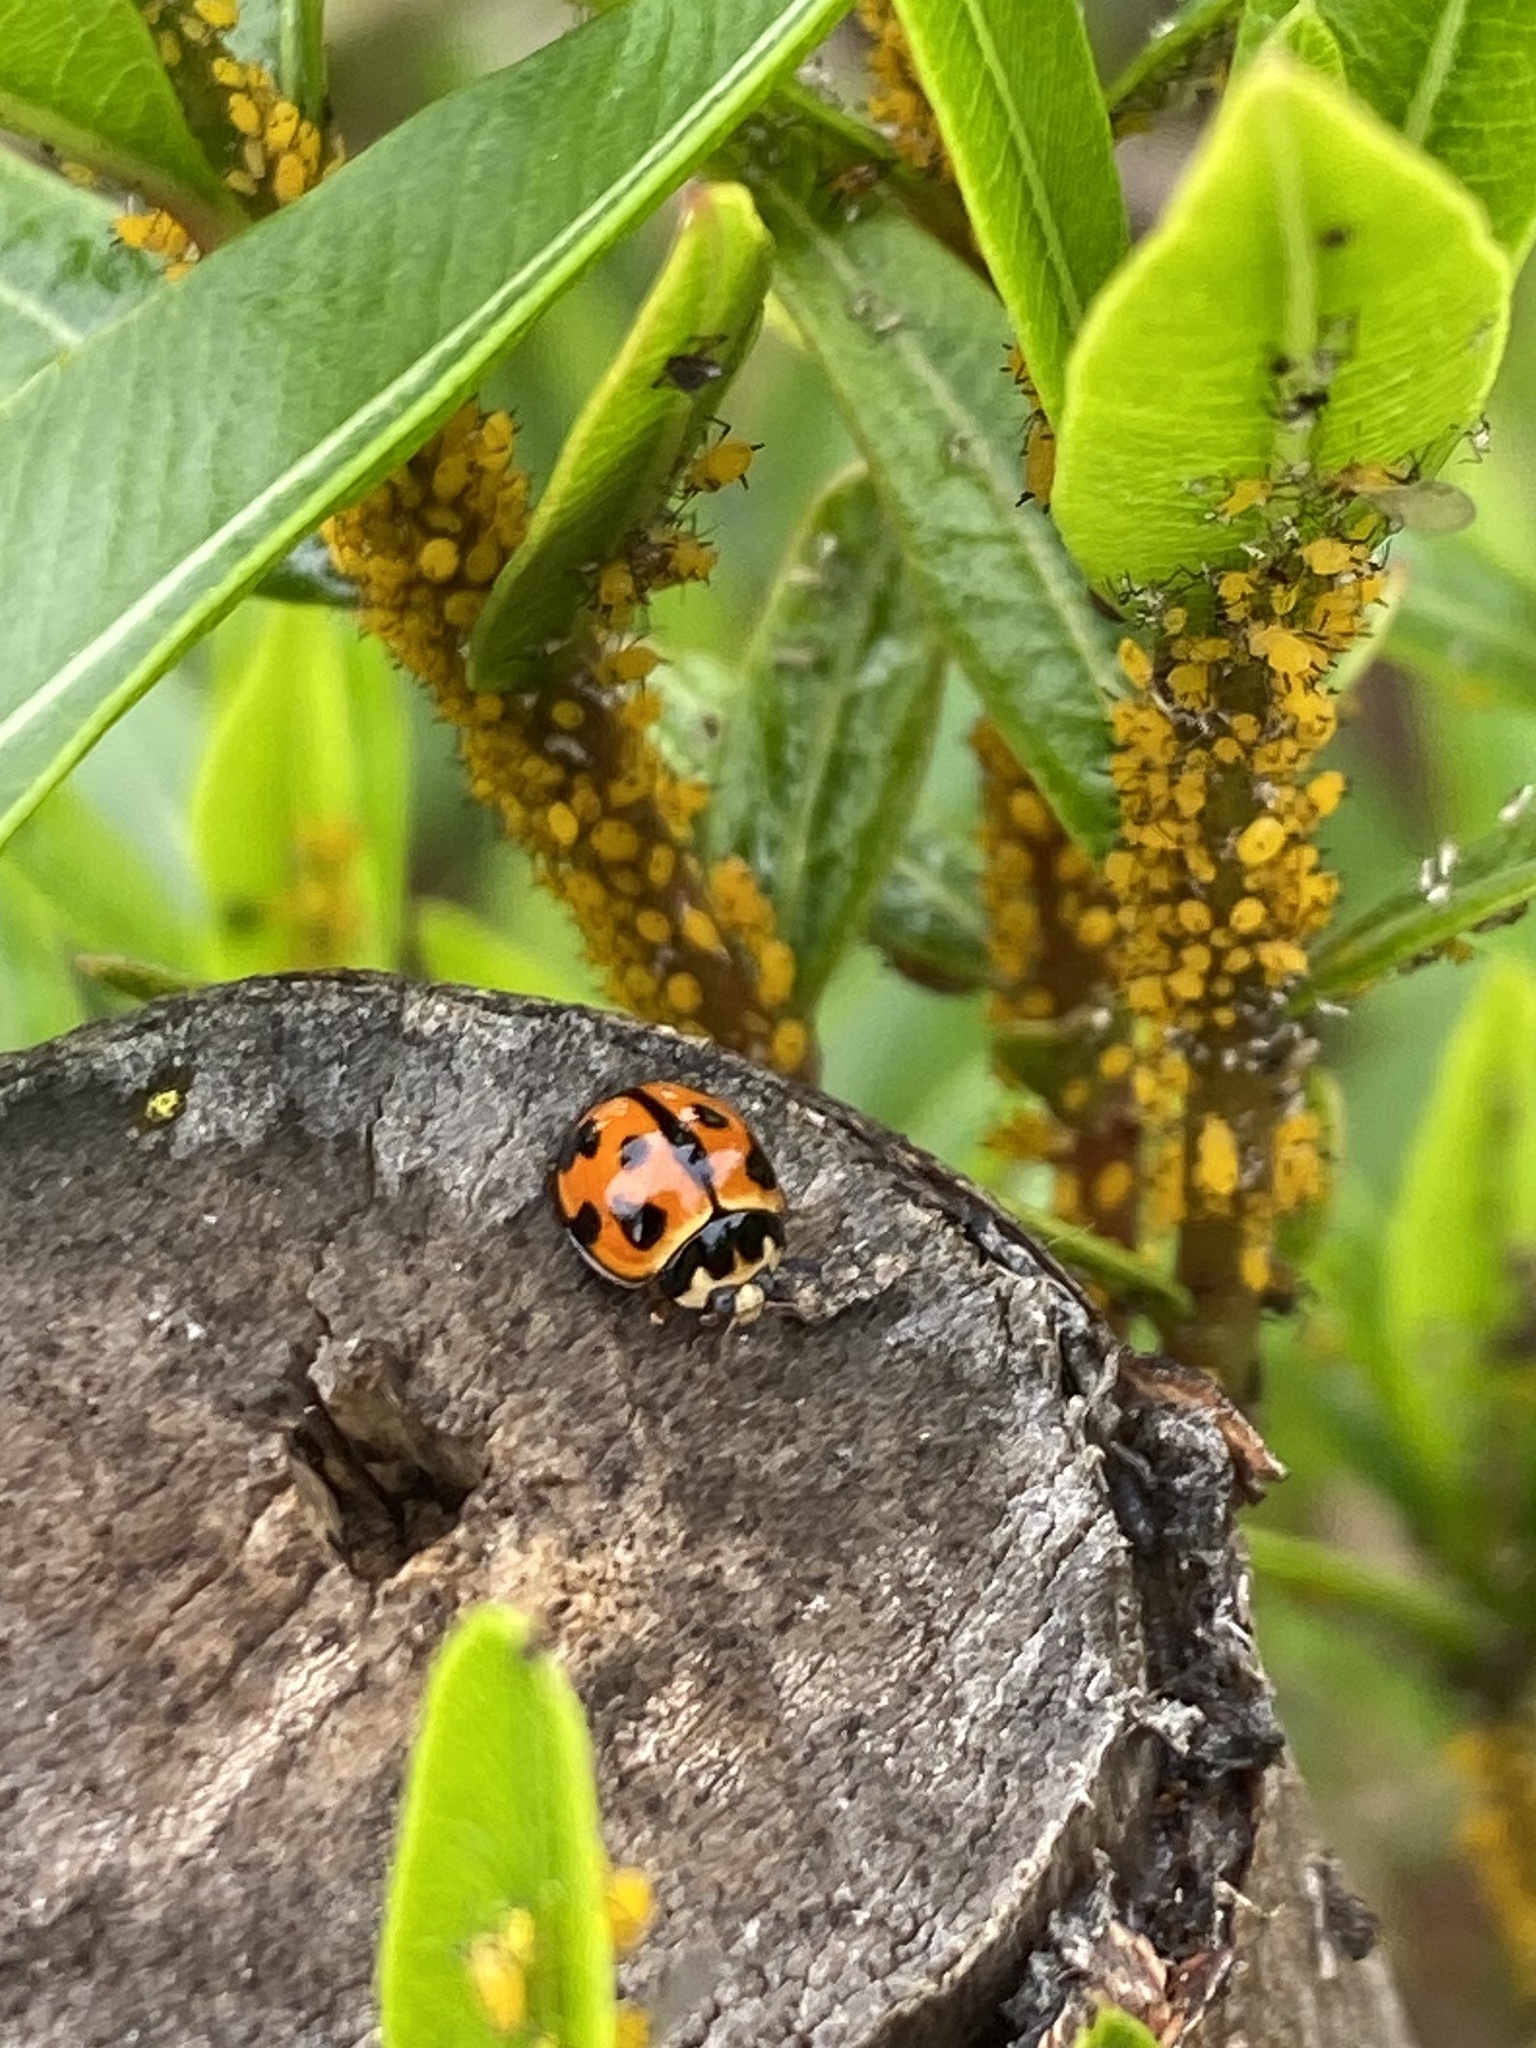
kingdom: Animalia
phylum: Arthropoda
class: Insecta
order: Coleoptera
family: Coccinellidae
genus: Coelophora
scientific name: Coelophora inaequalis
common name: Common australian lady beetle
